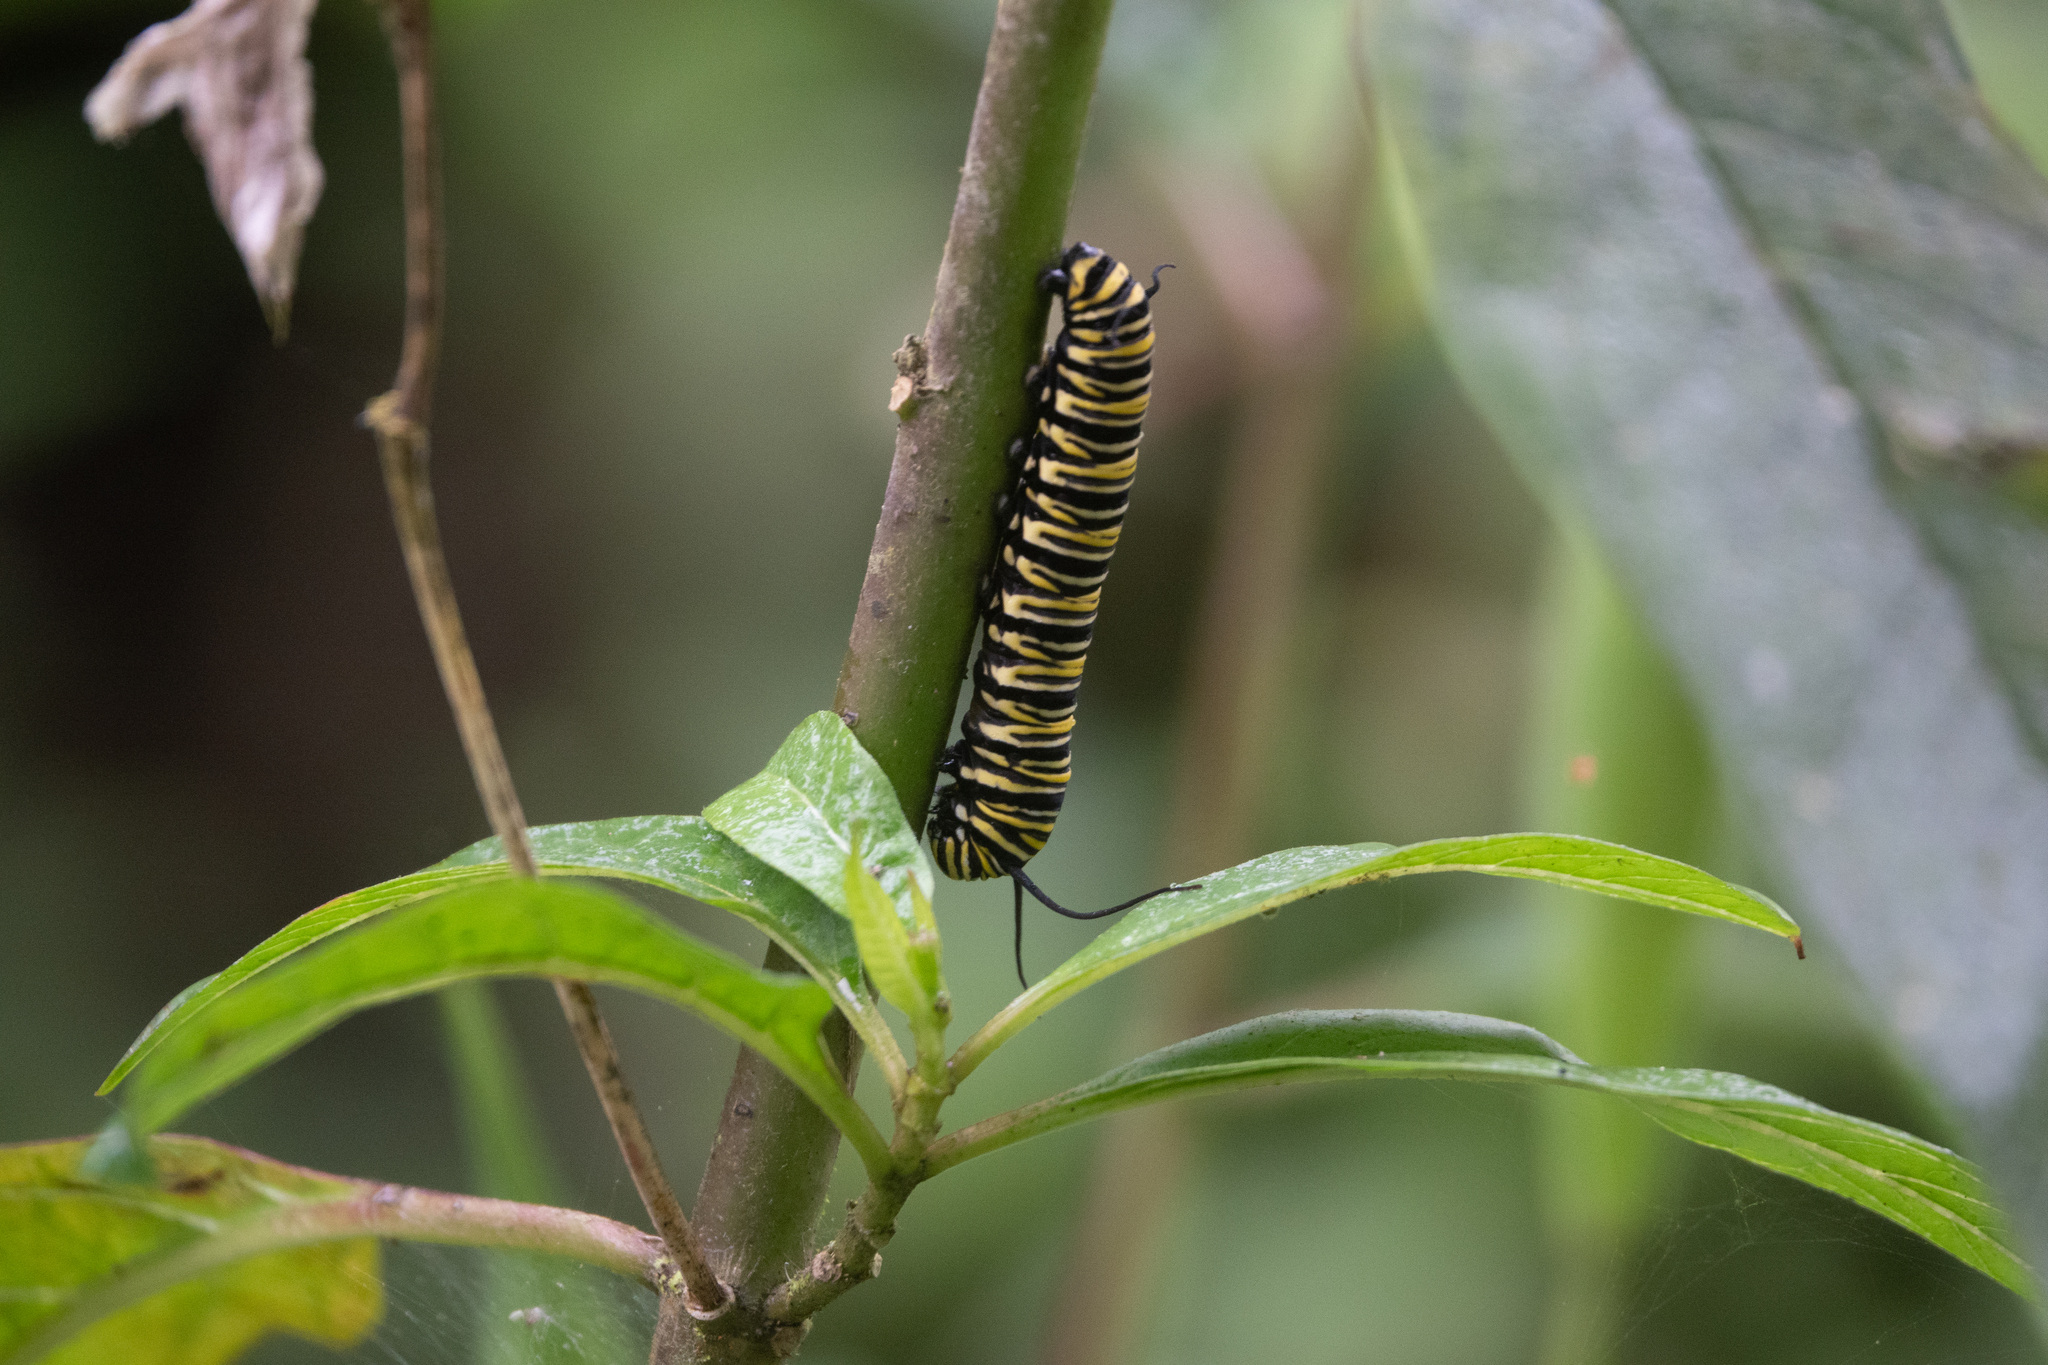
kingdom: Animalia
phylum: Arthropoda
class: Insecta
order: Lepidoptera
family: Nymphalidae
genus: Danaus
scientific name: Danaus plexippus
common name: Monarch
